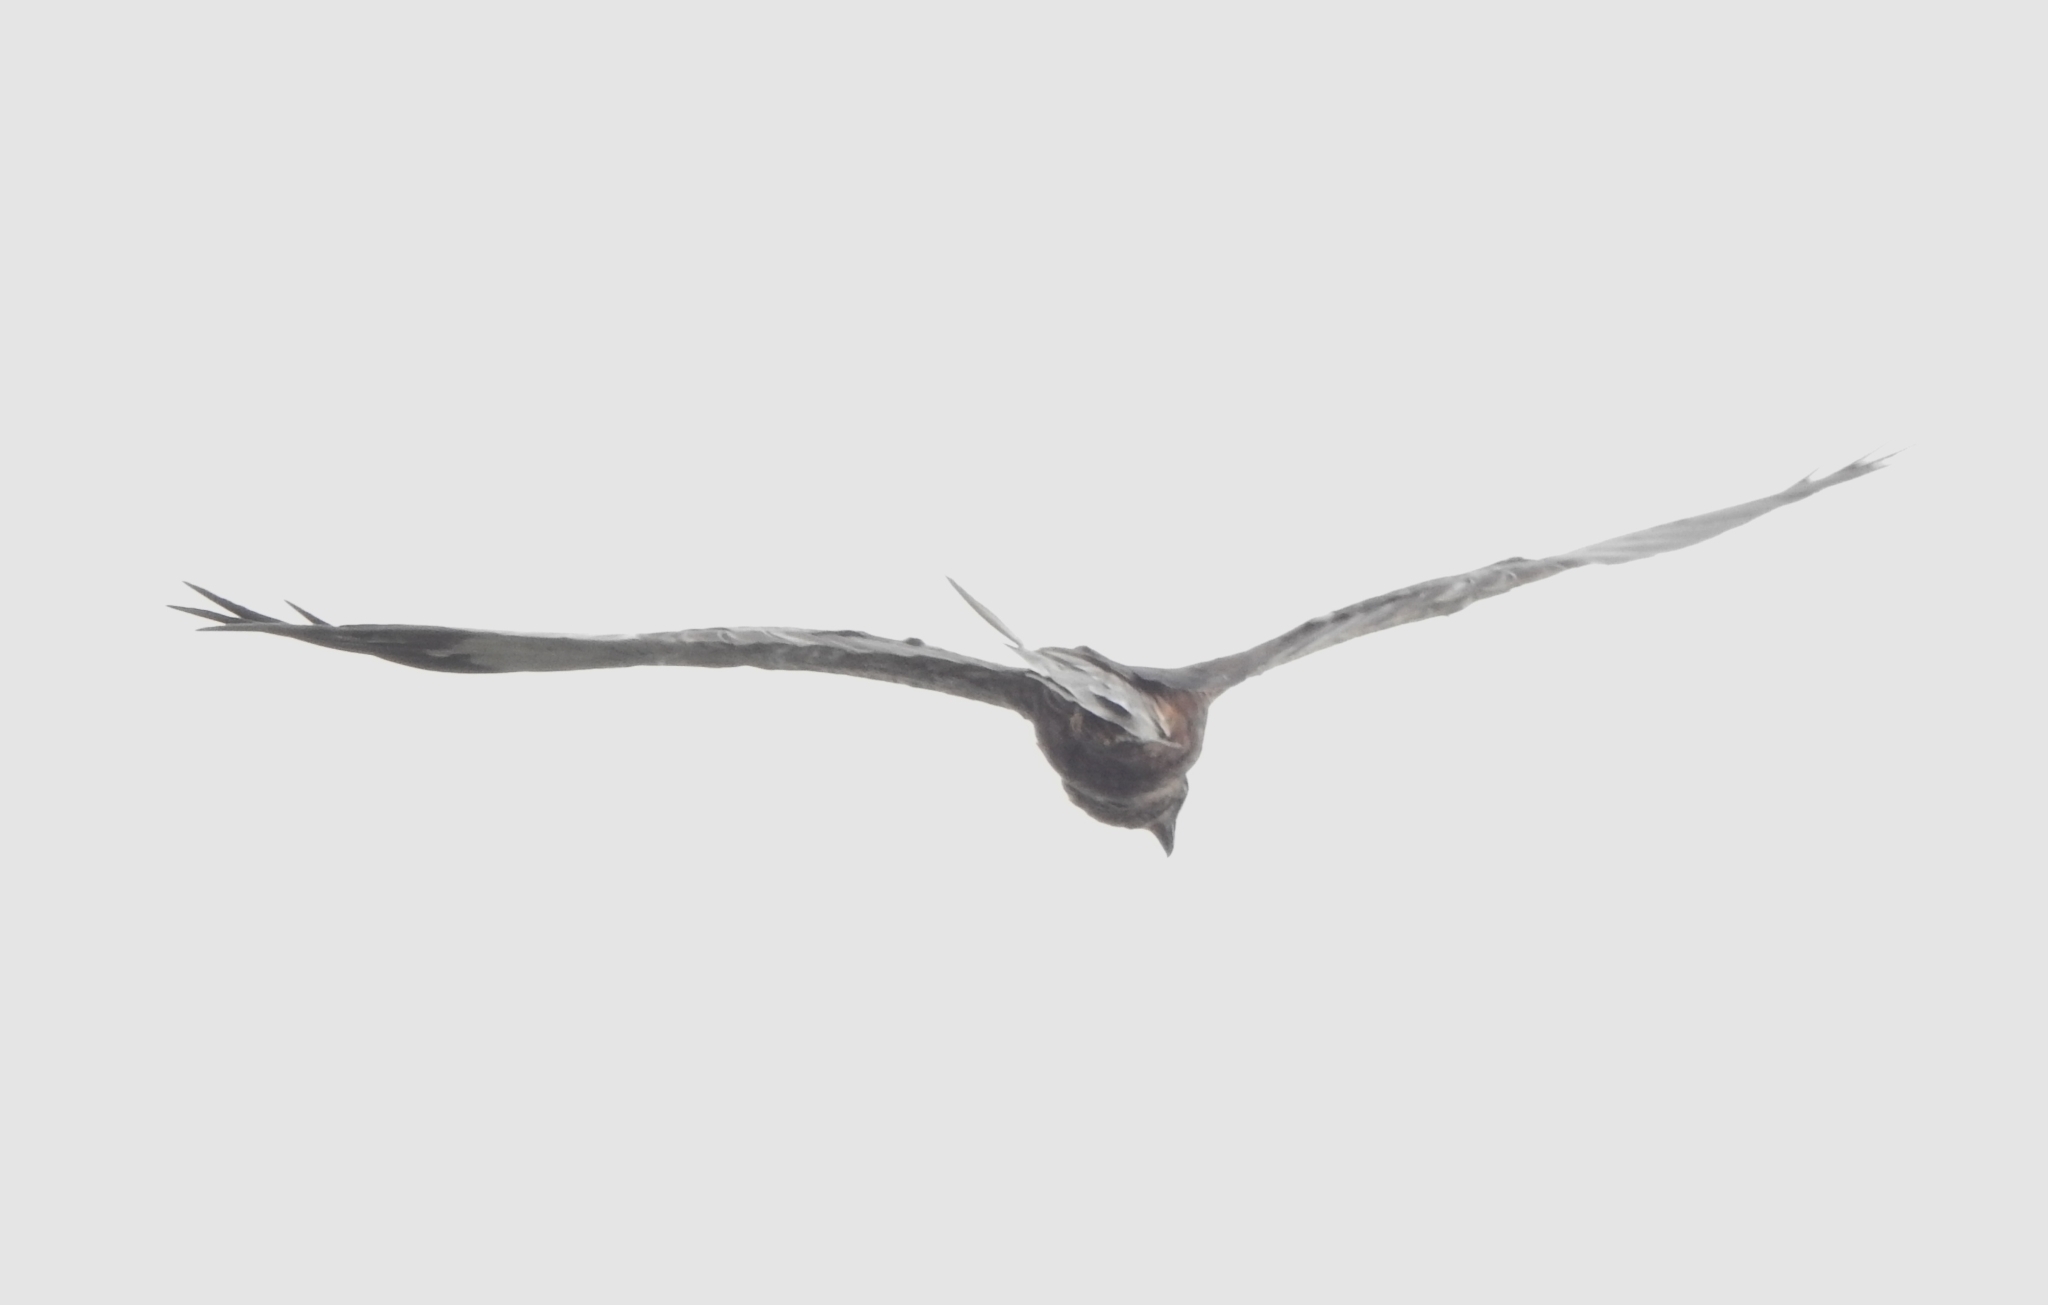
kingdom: Animalia
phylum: Chordata
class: Aves
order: Accipitriformes
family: Accipitridae
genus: Circus
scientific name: Circus aeruginosus
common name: Western marsh harrier
